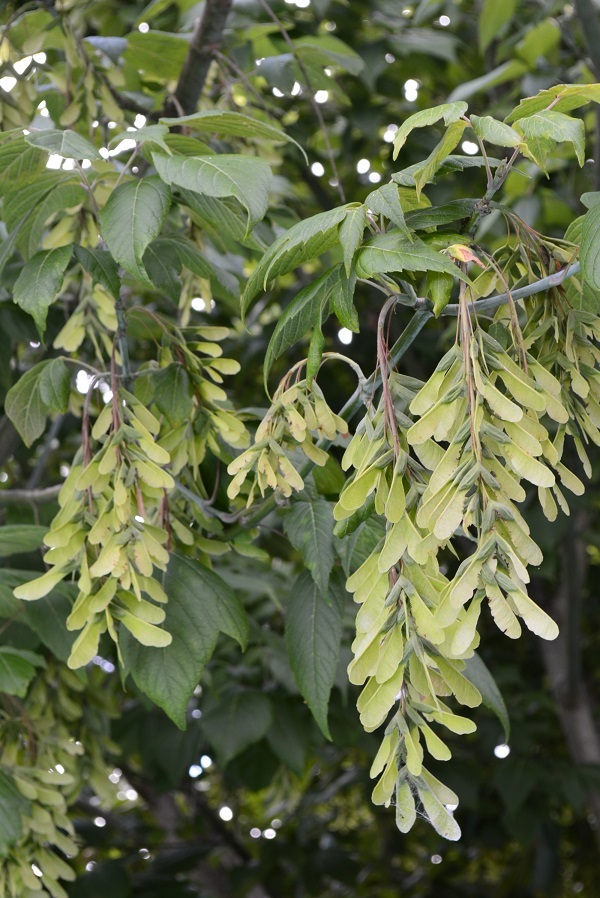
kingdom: Plantae
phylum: Tracheophyta
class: Magnoliopsida
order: Sapindales
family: Sapindaceae
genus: Acer
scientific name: Acer negundo
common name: Ashleaf maple
